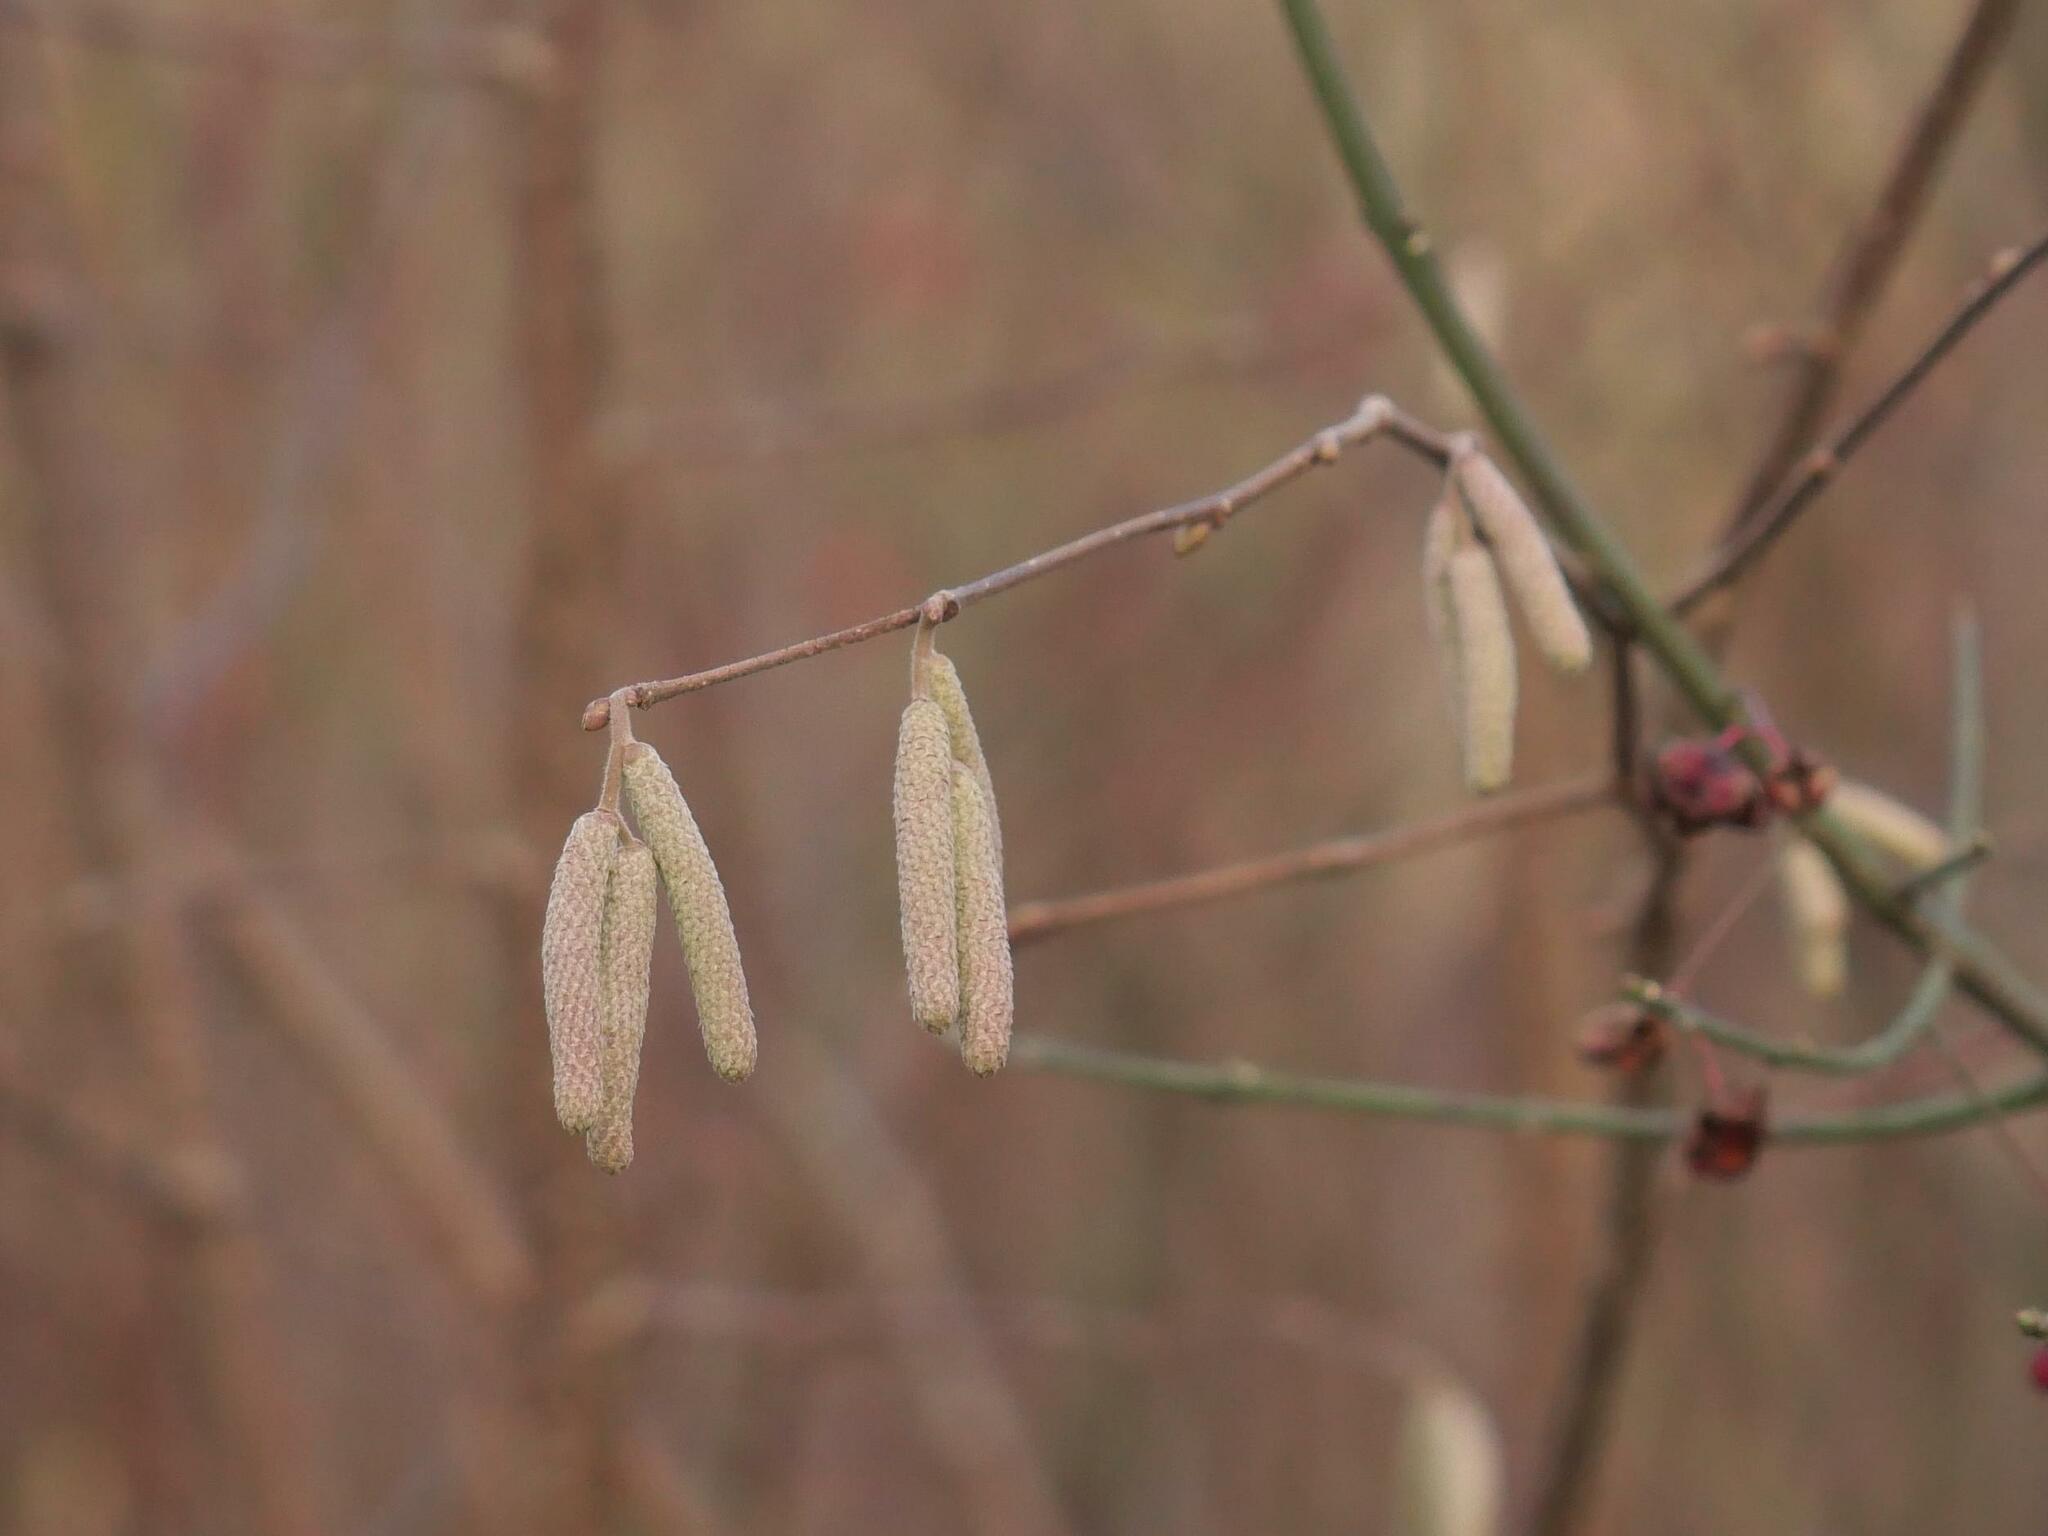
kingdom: Plantae
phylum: Tracheophyta
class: Magnoliopsida
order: Fagales
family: Betulaceae
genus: Corylus
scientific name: Corylus avellana
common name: European hazel
